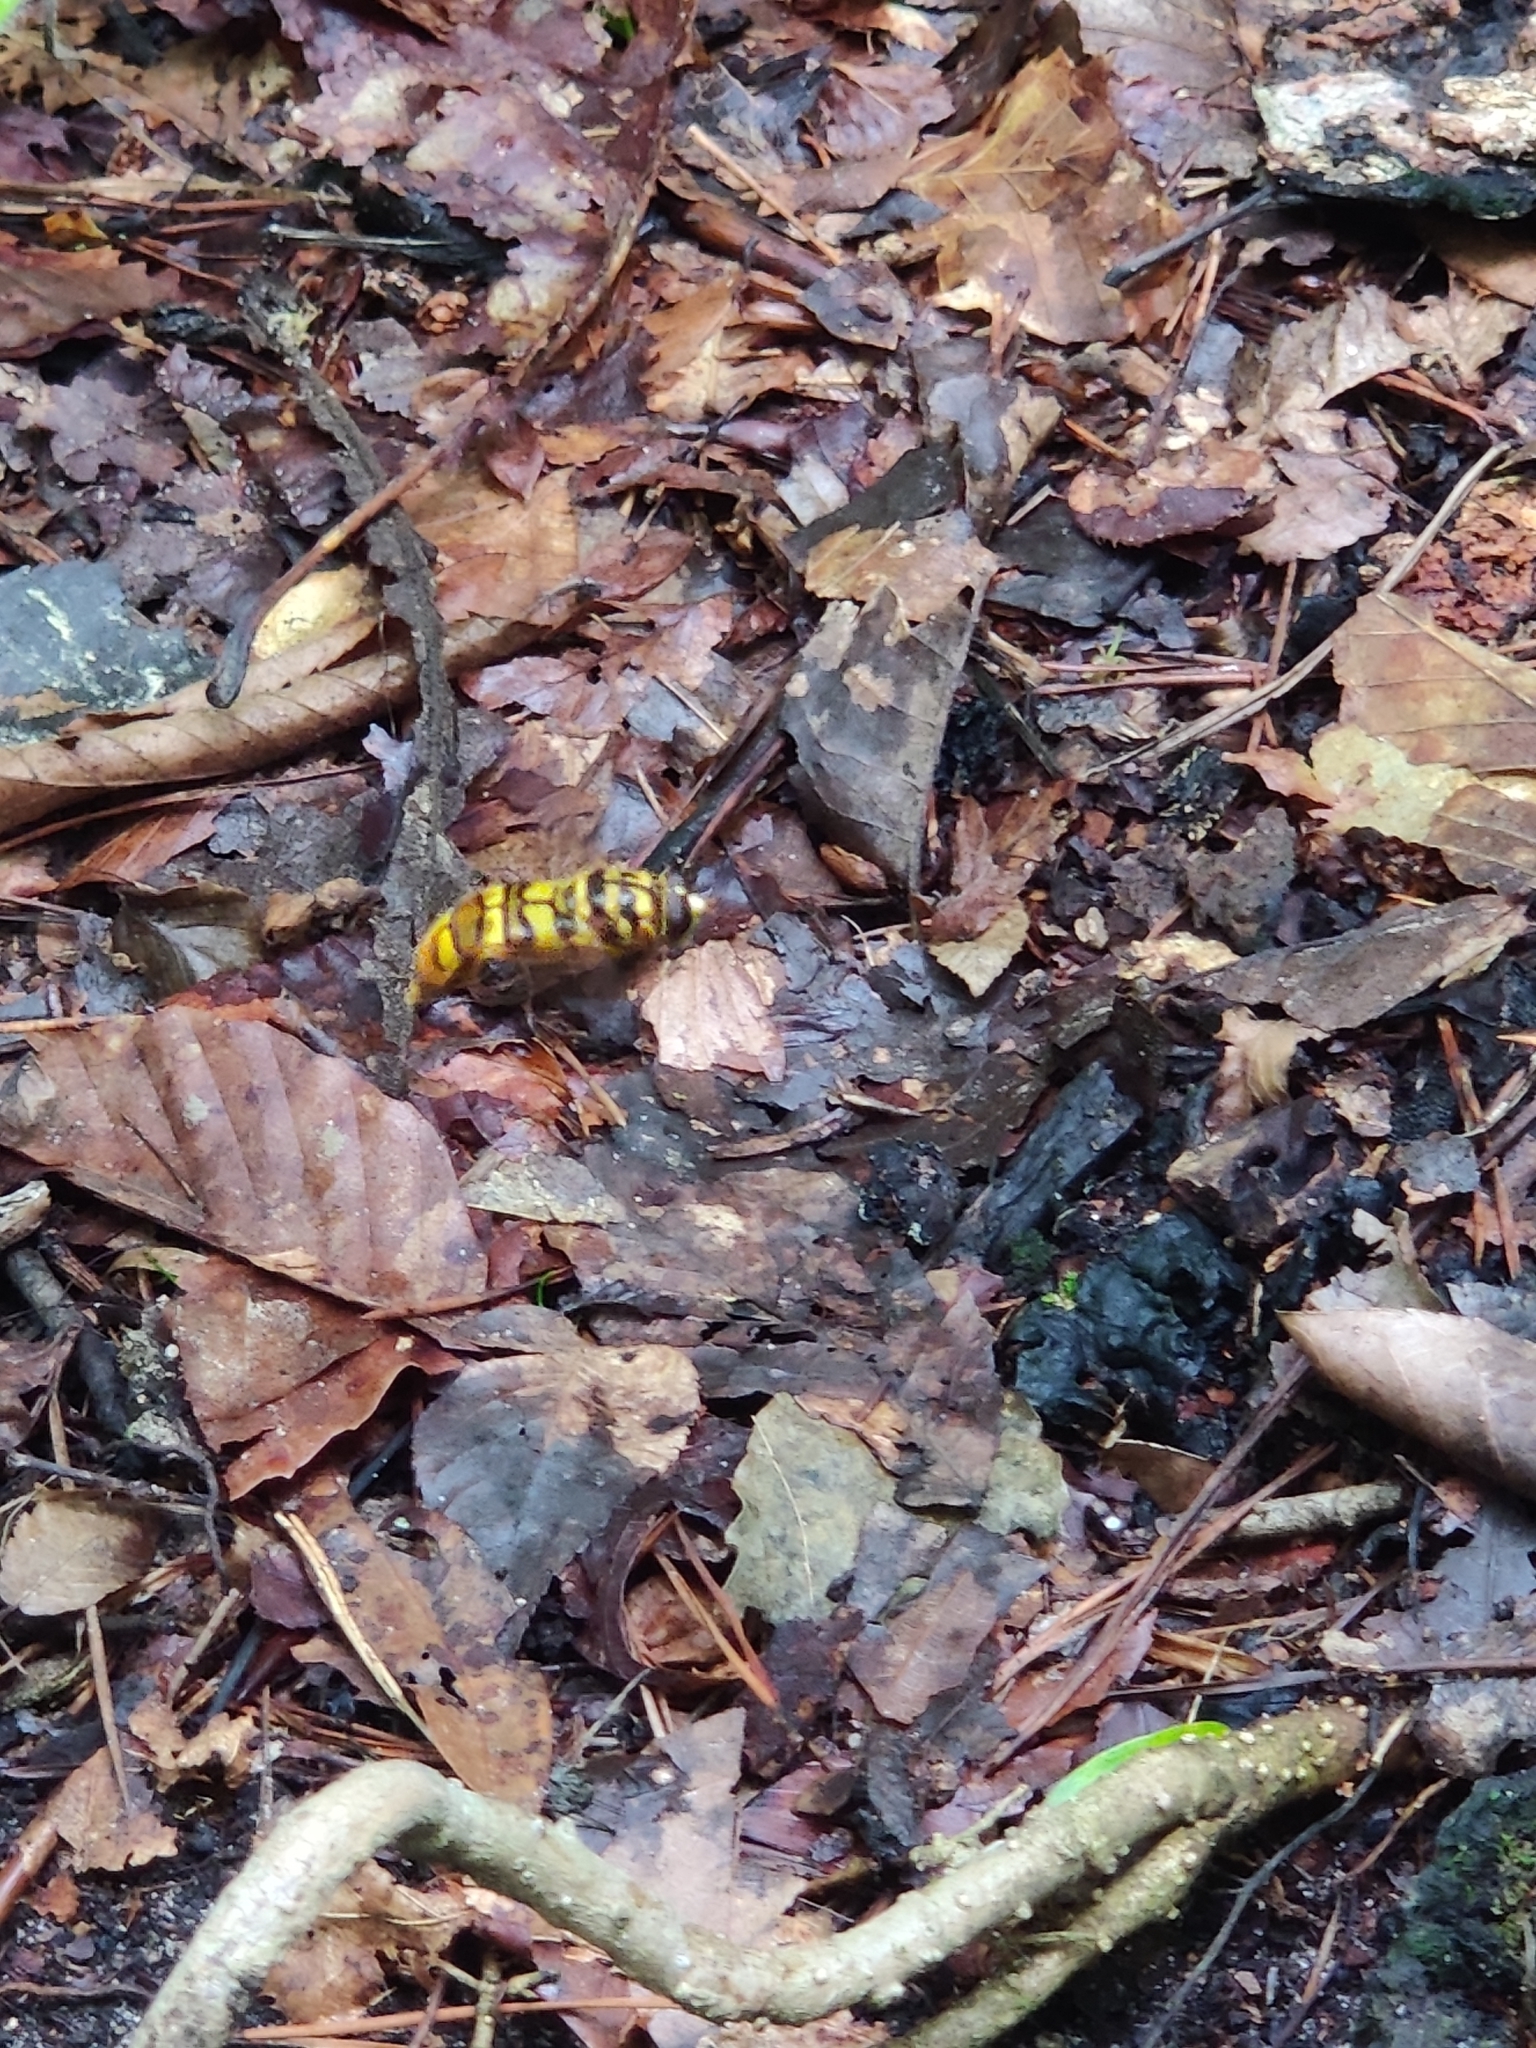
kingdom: Animalia
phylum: Arthropoda
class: Insecta
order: Diptera
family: Syrphidae
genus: Milesia
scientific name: Milesia virginiensis
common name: Virginia giant
